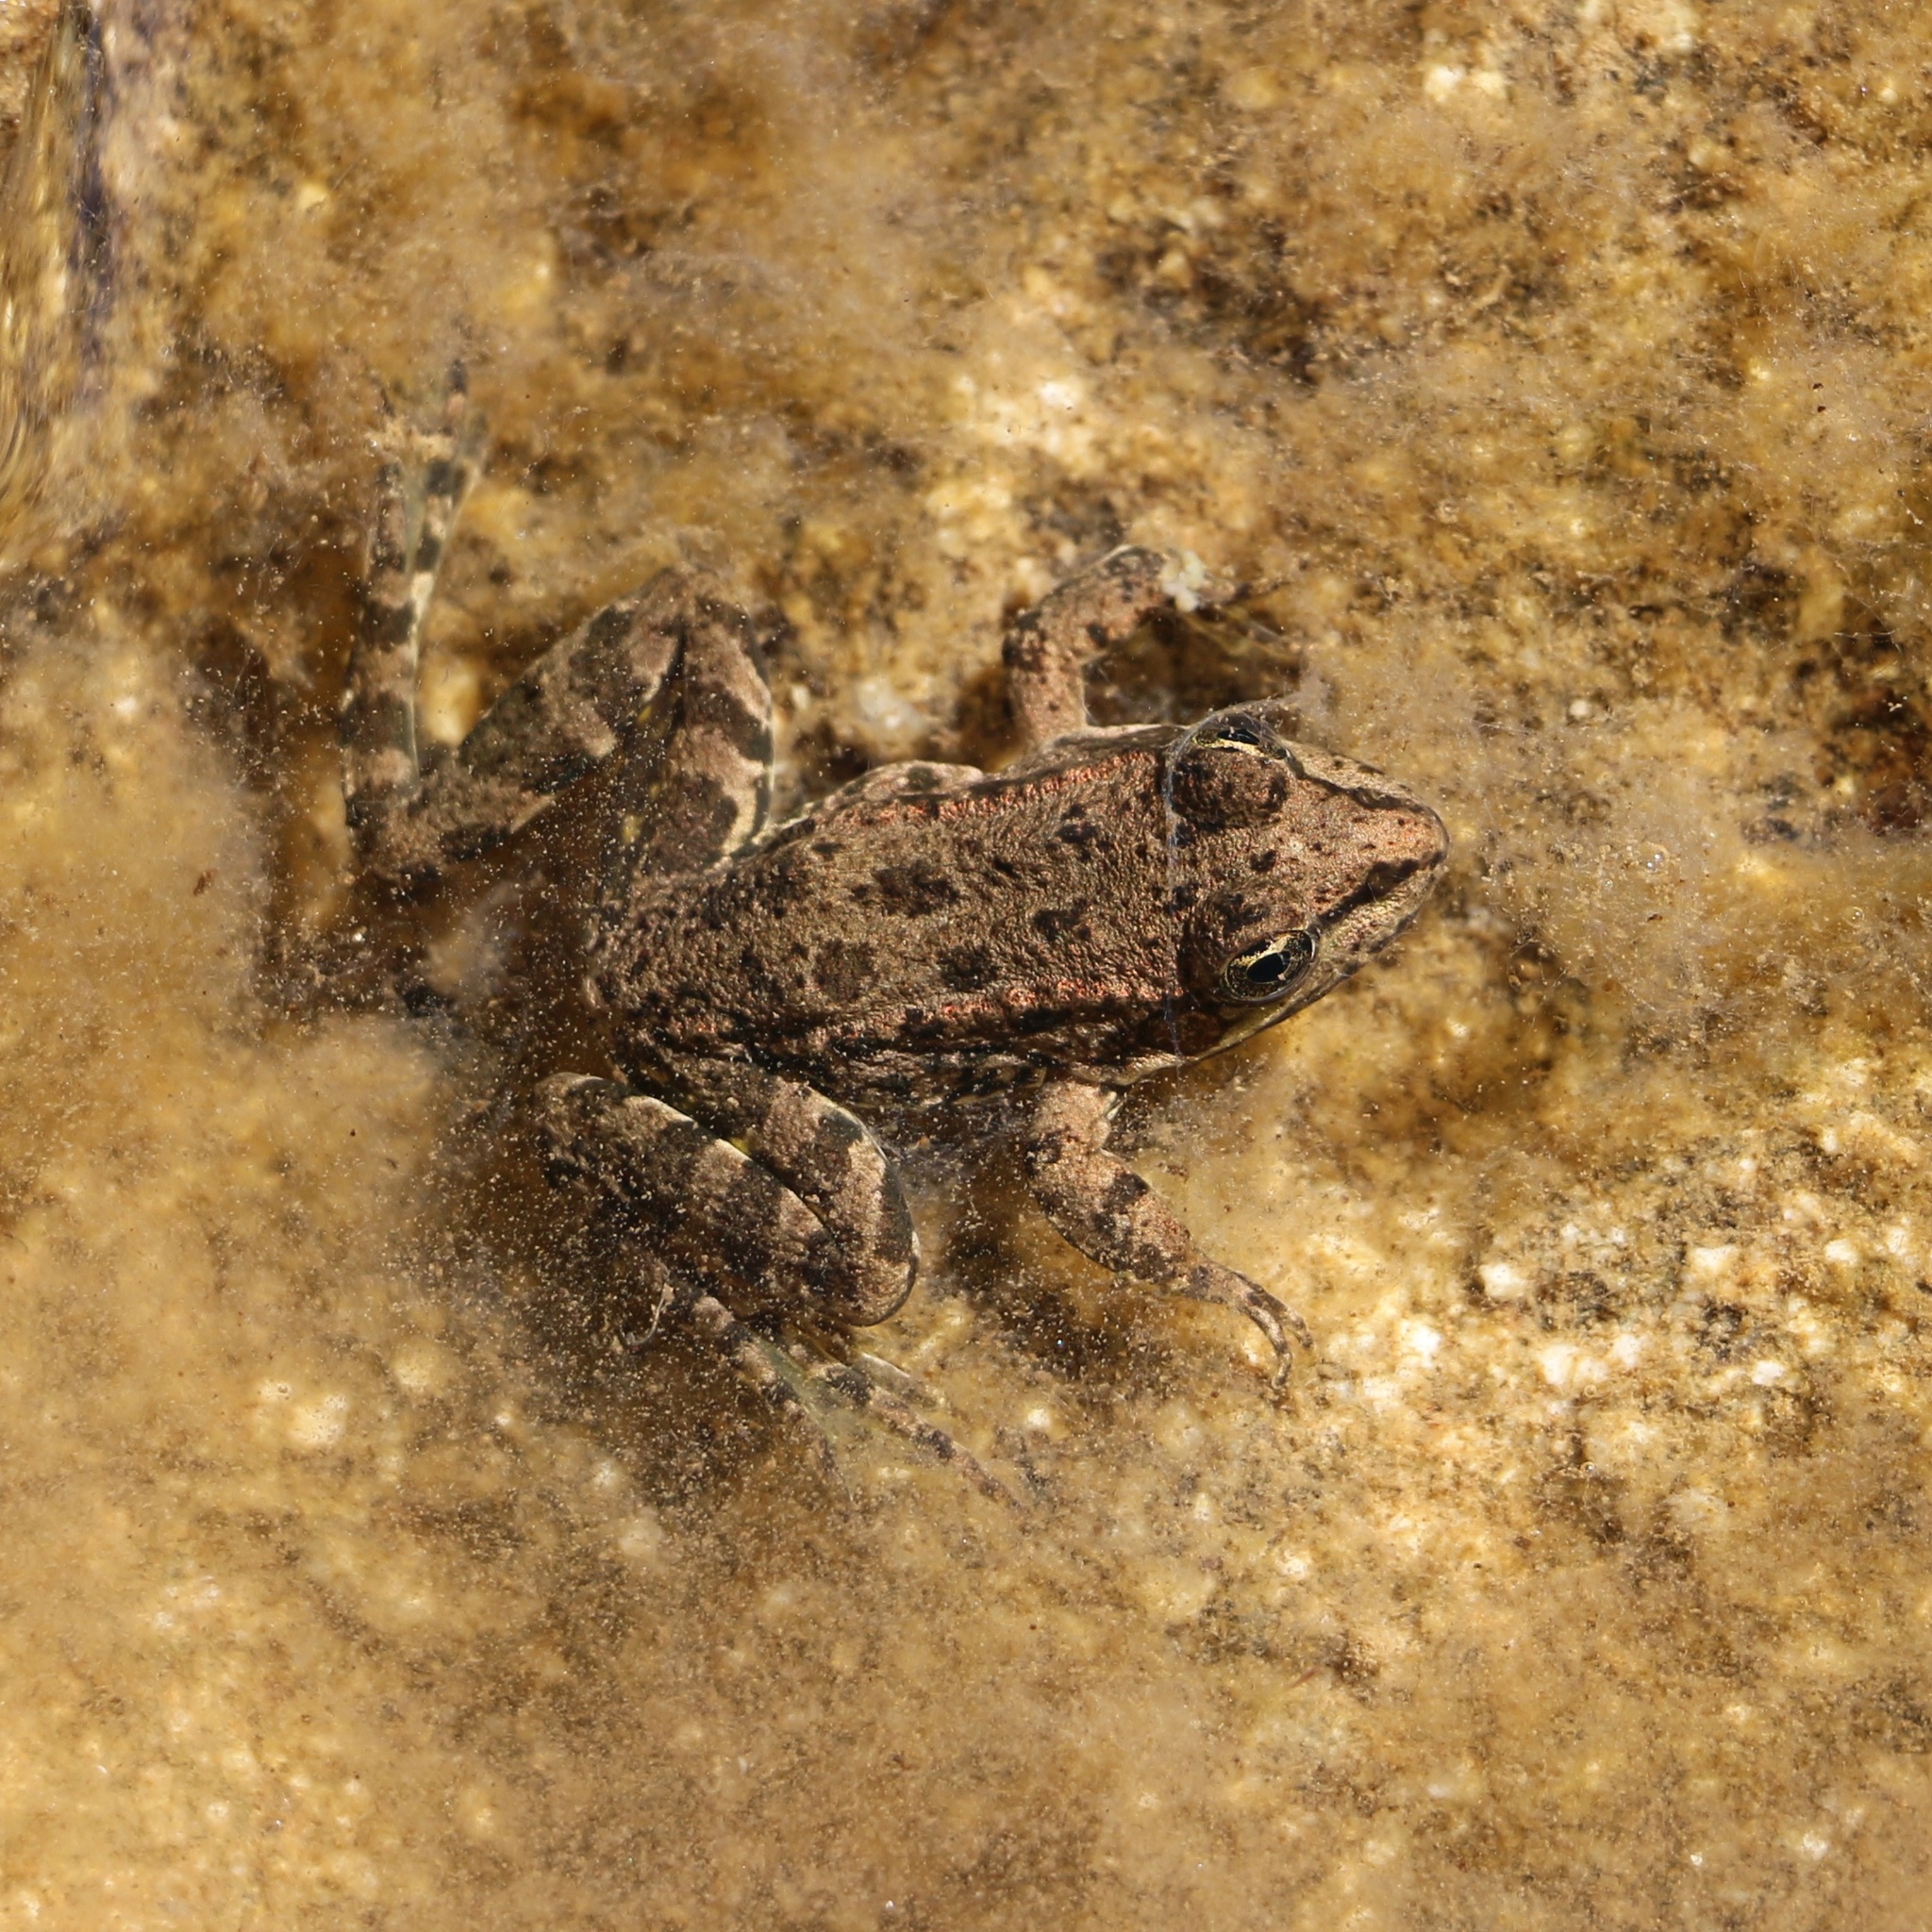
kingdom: Animalia
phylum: Chordata
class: Amphibia
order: Anura
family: Ranidae
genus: Pelophylax
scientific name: Pelophylax ridibundus
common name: Marsh frog
